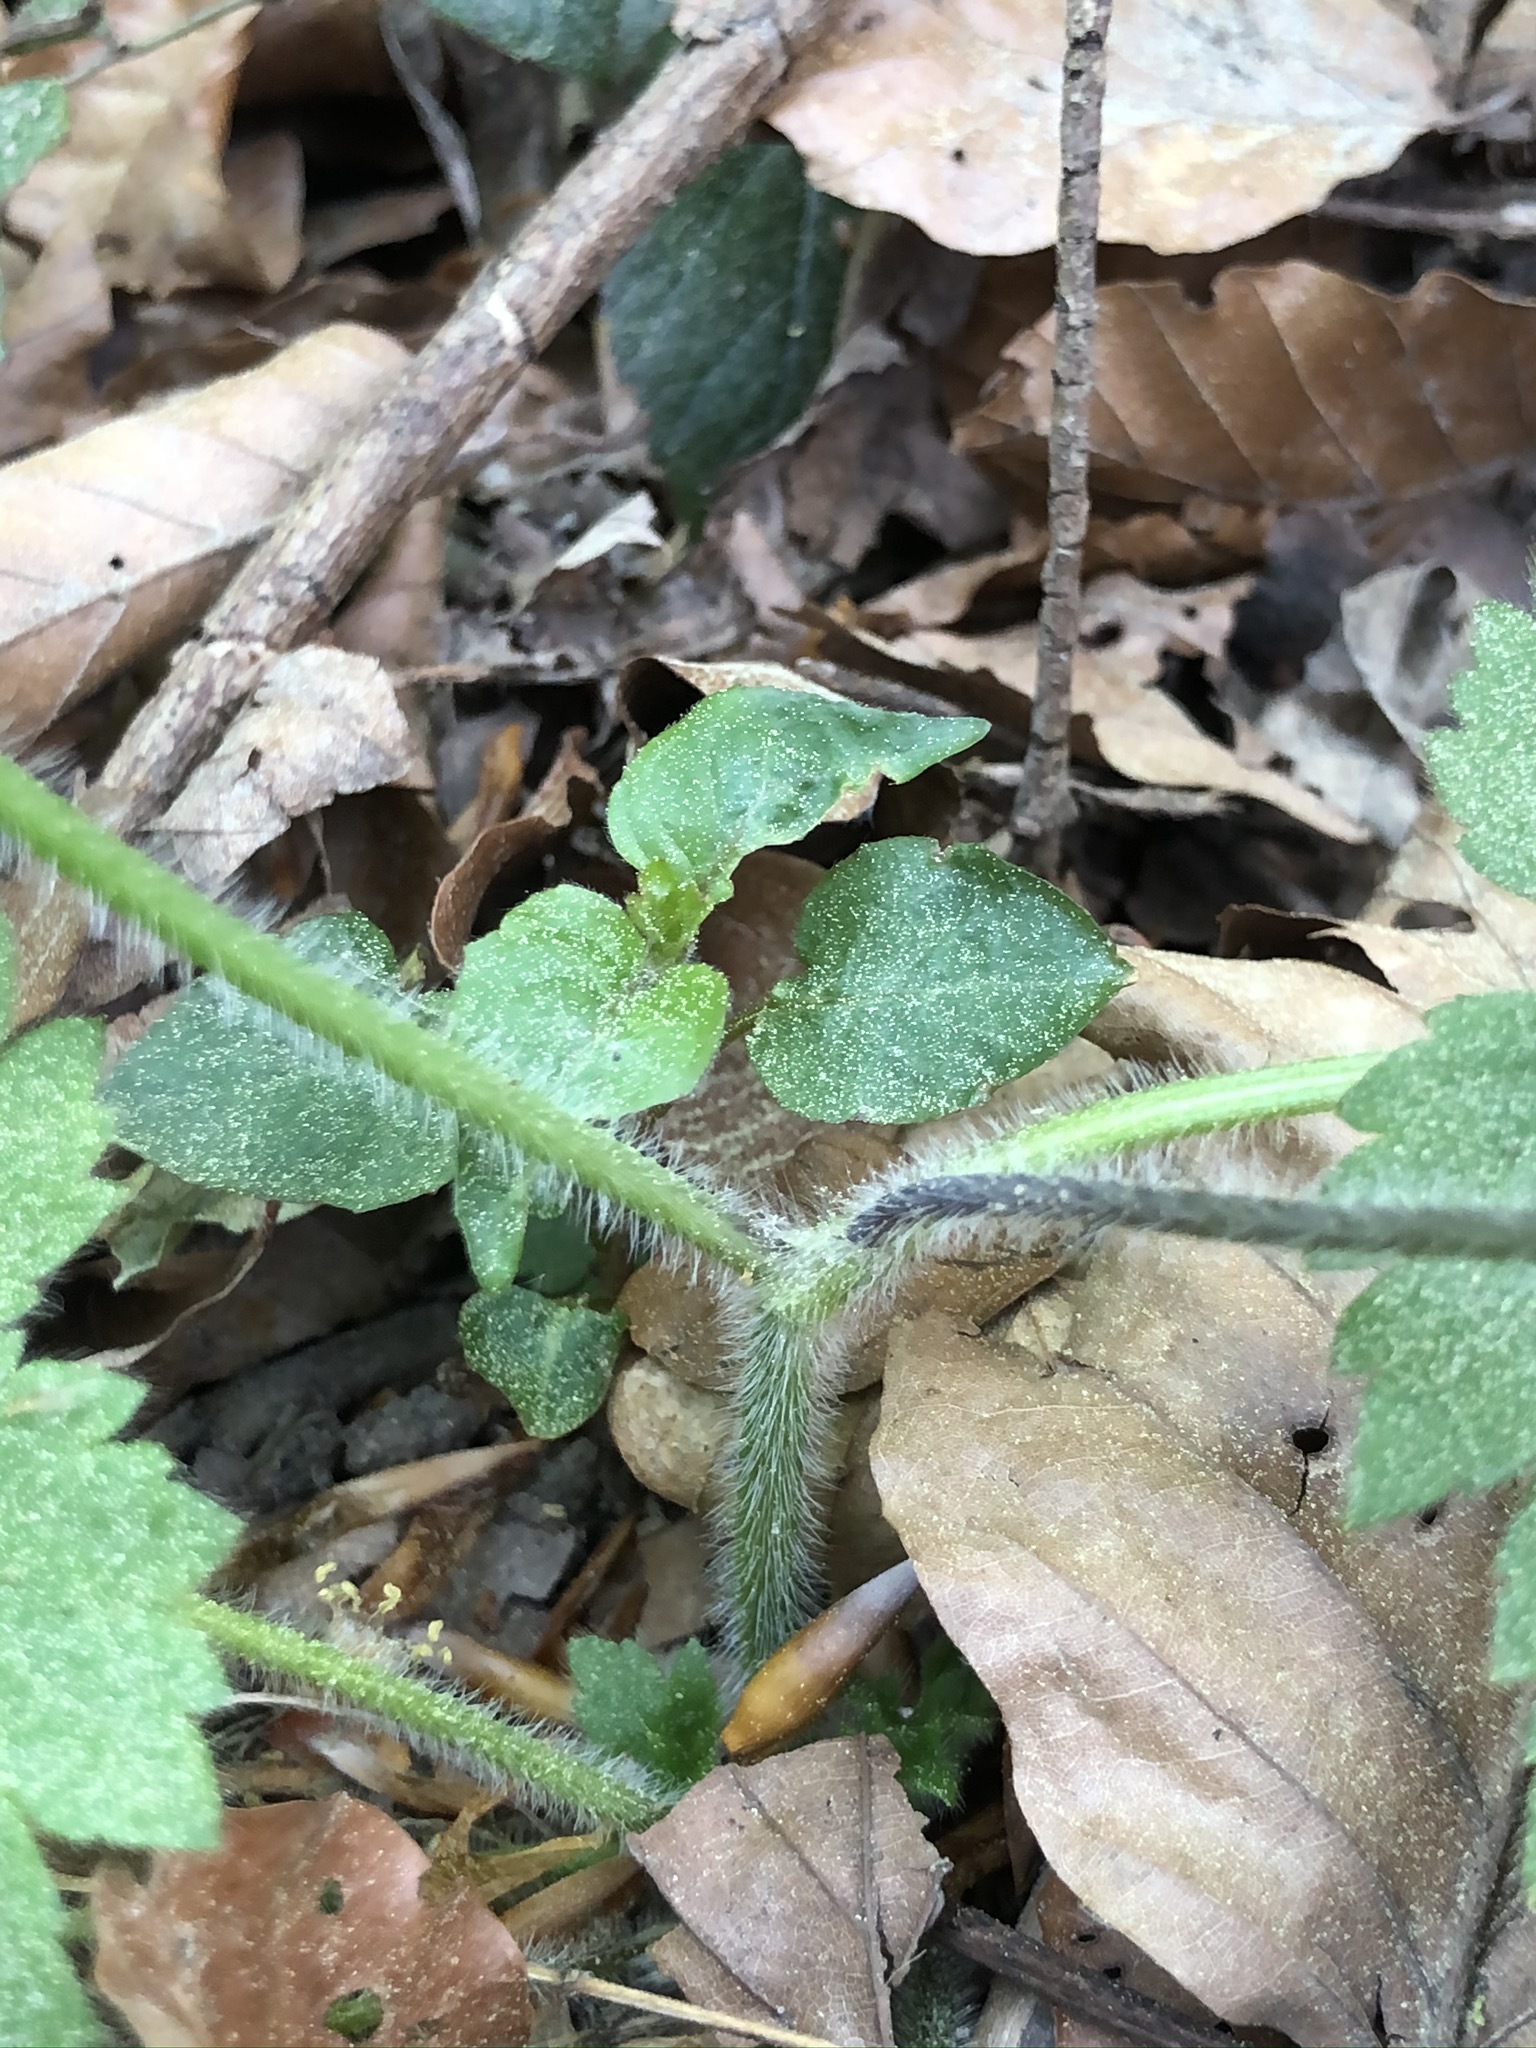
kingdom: Plantae
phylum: Tracheophyta
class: Magnoliopsida
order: Ranunculales
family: Ranunculaceae
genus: Ranunculus
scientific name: Ranunculus lanuginosus
